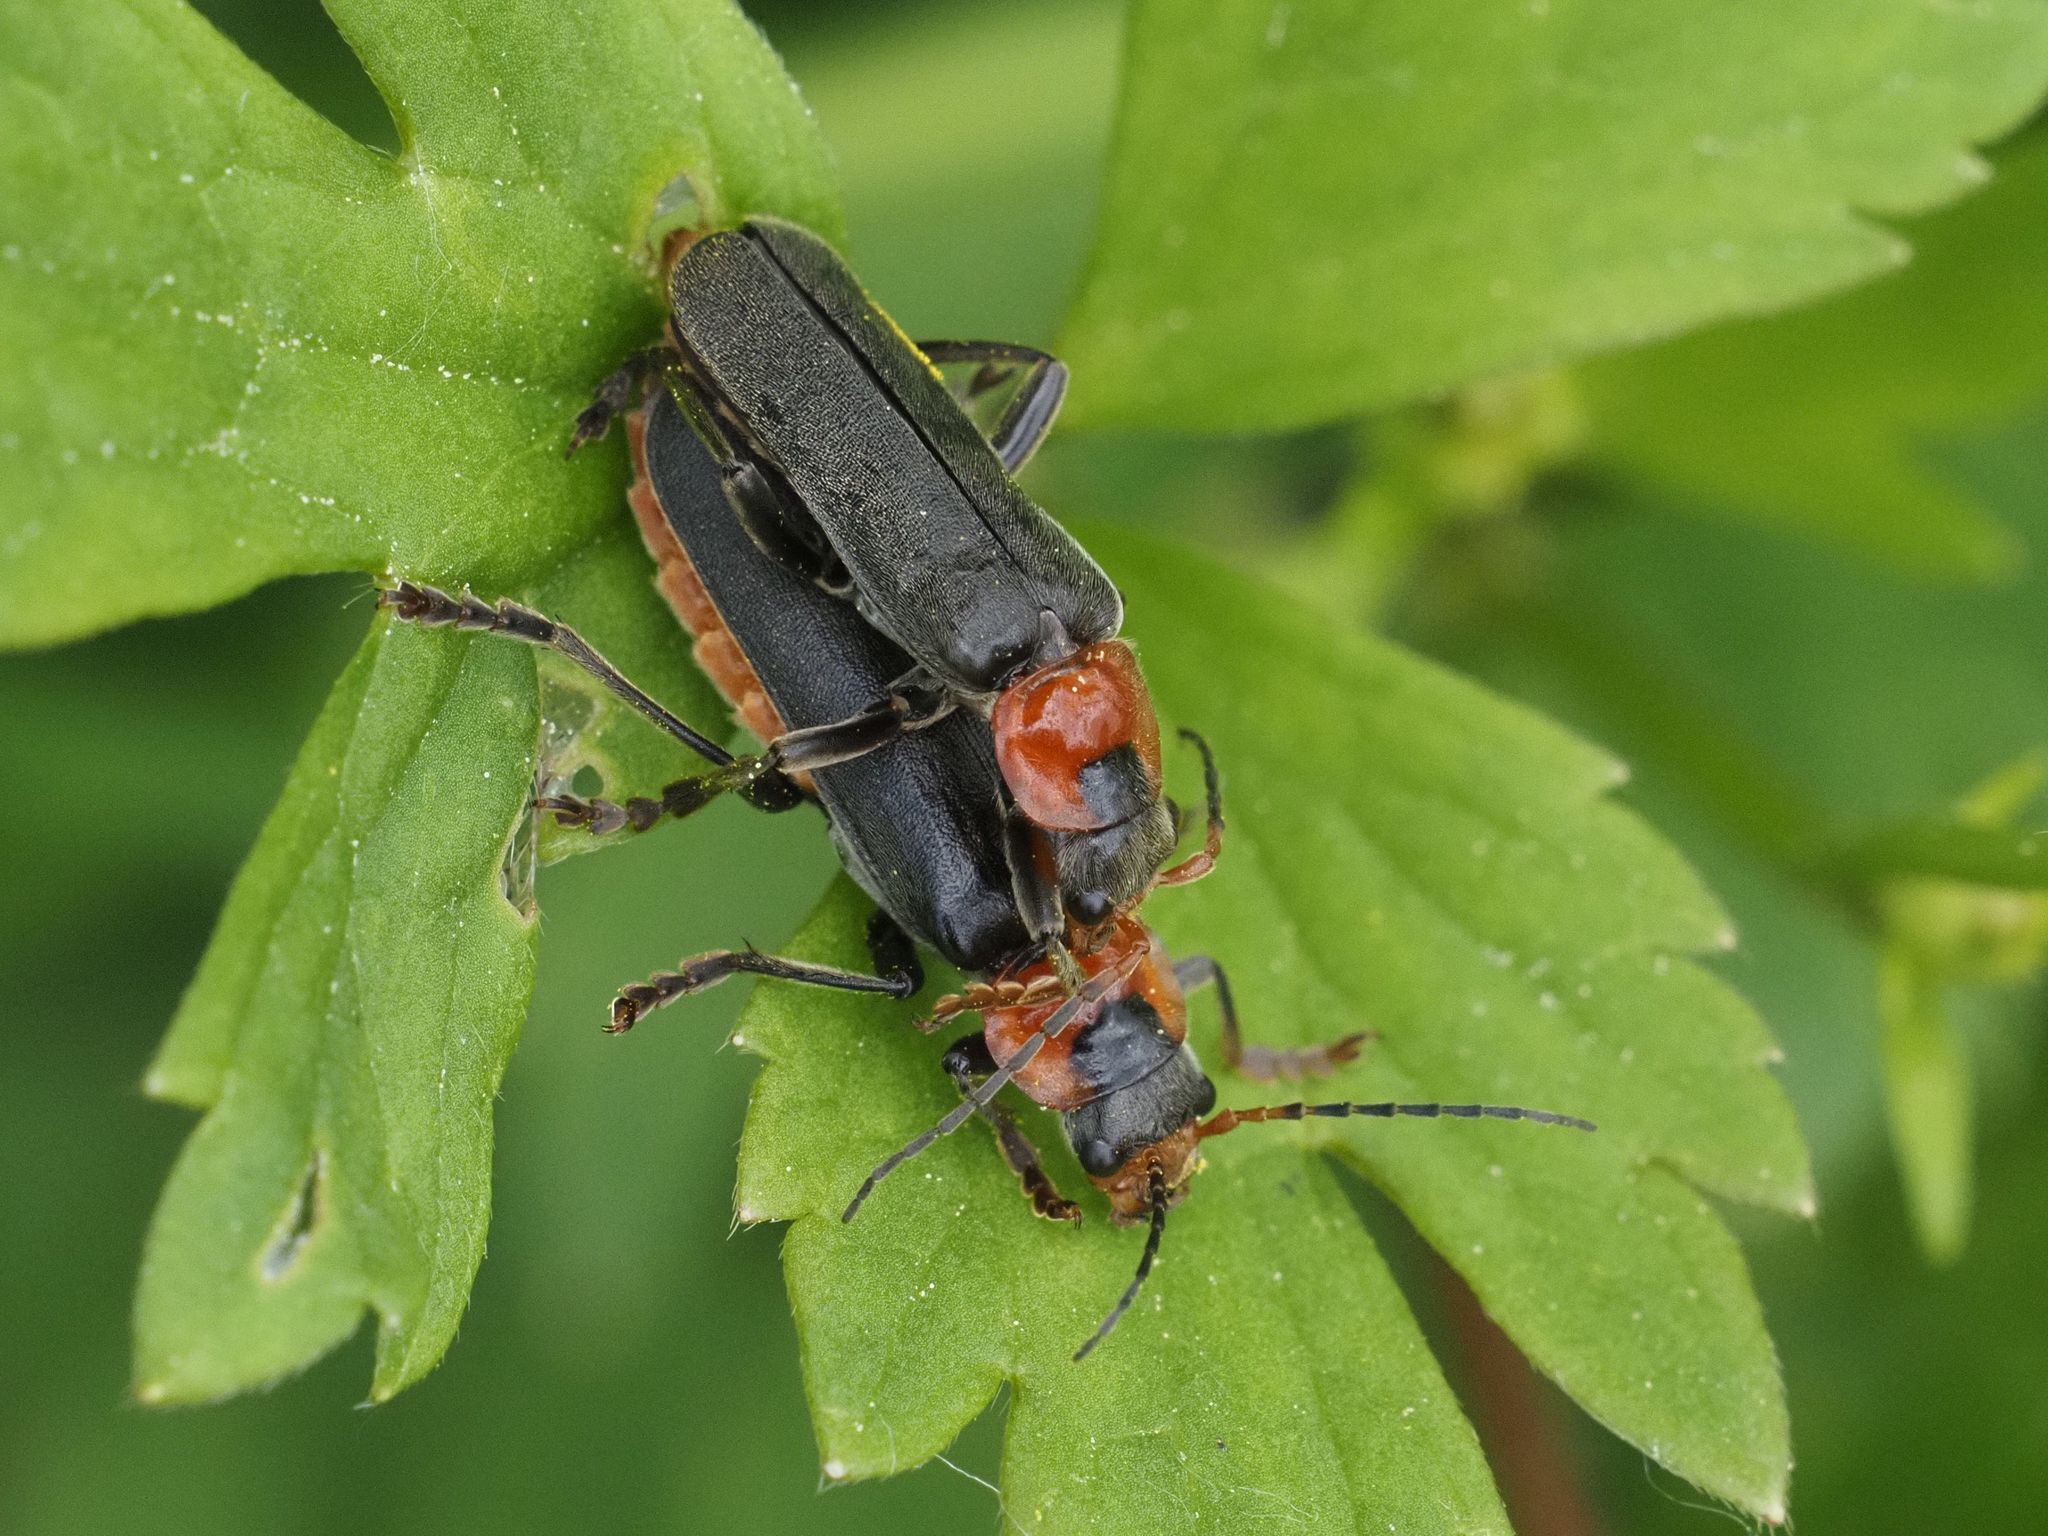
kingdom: Animalia
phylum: Arthropoda
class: Insecta
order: Coleoptera
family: Cantharidae
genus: Cantharis
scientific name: Cantharis fusca
